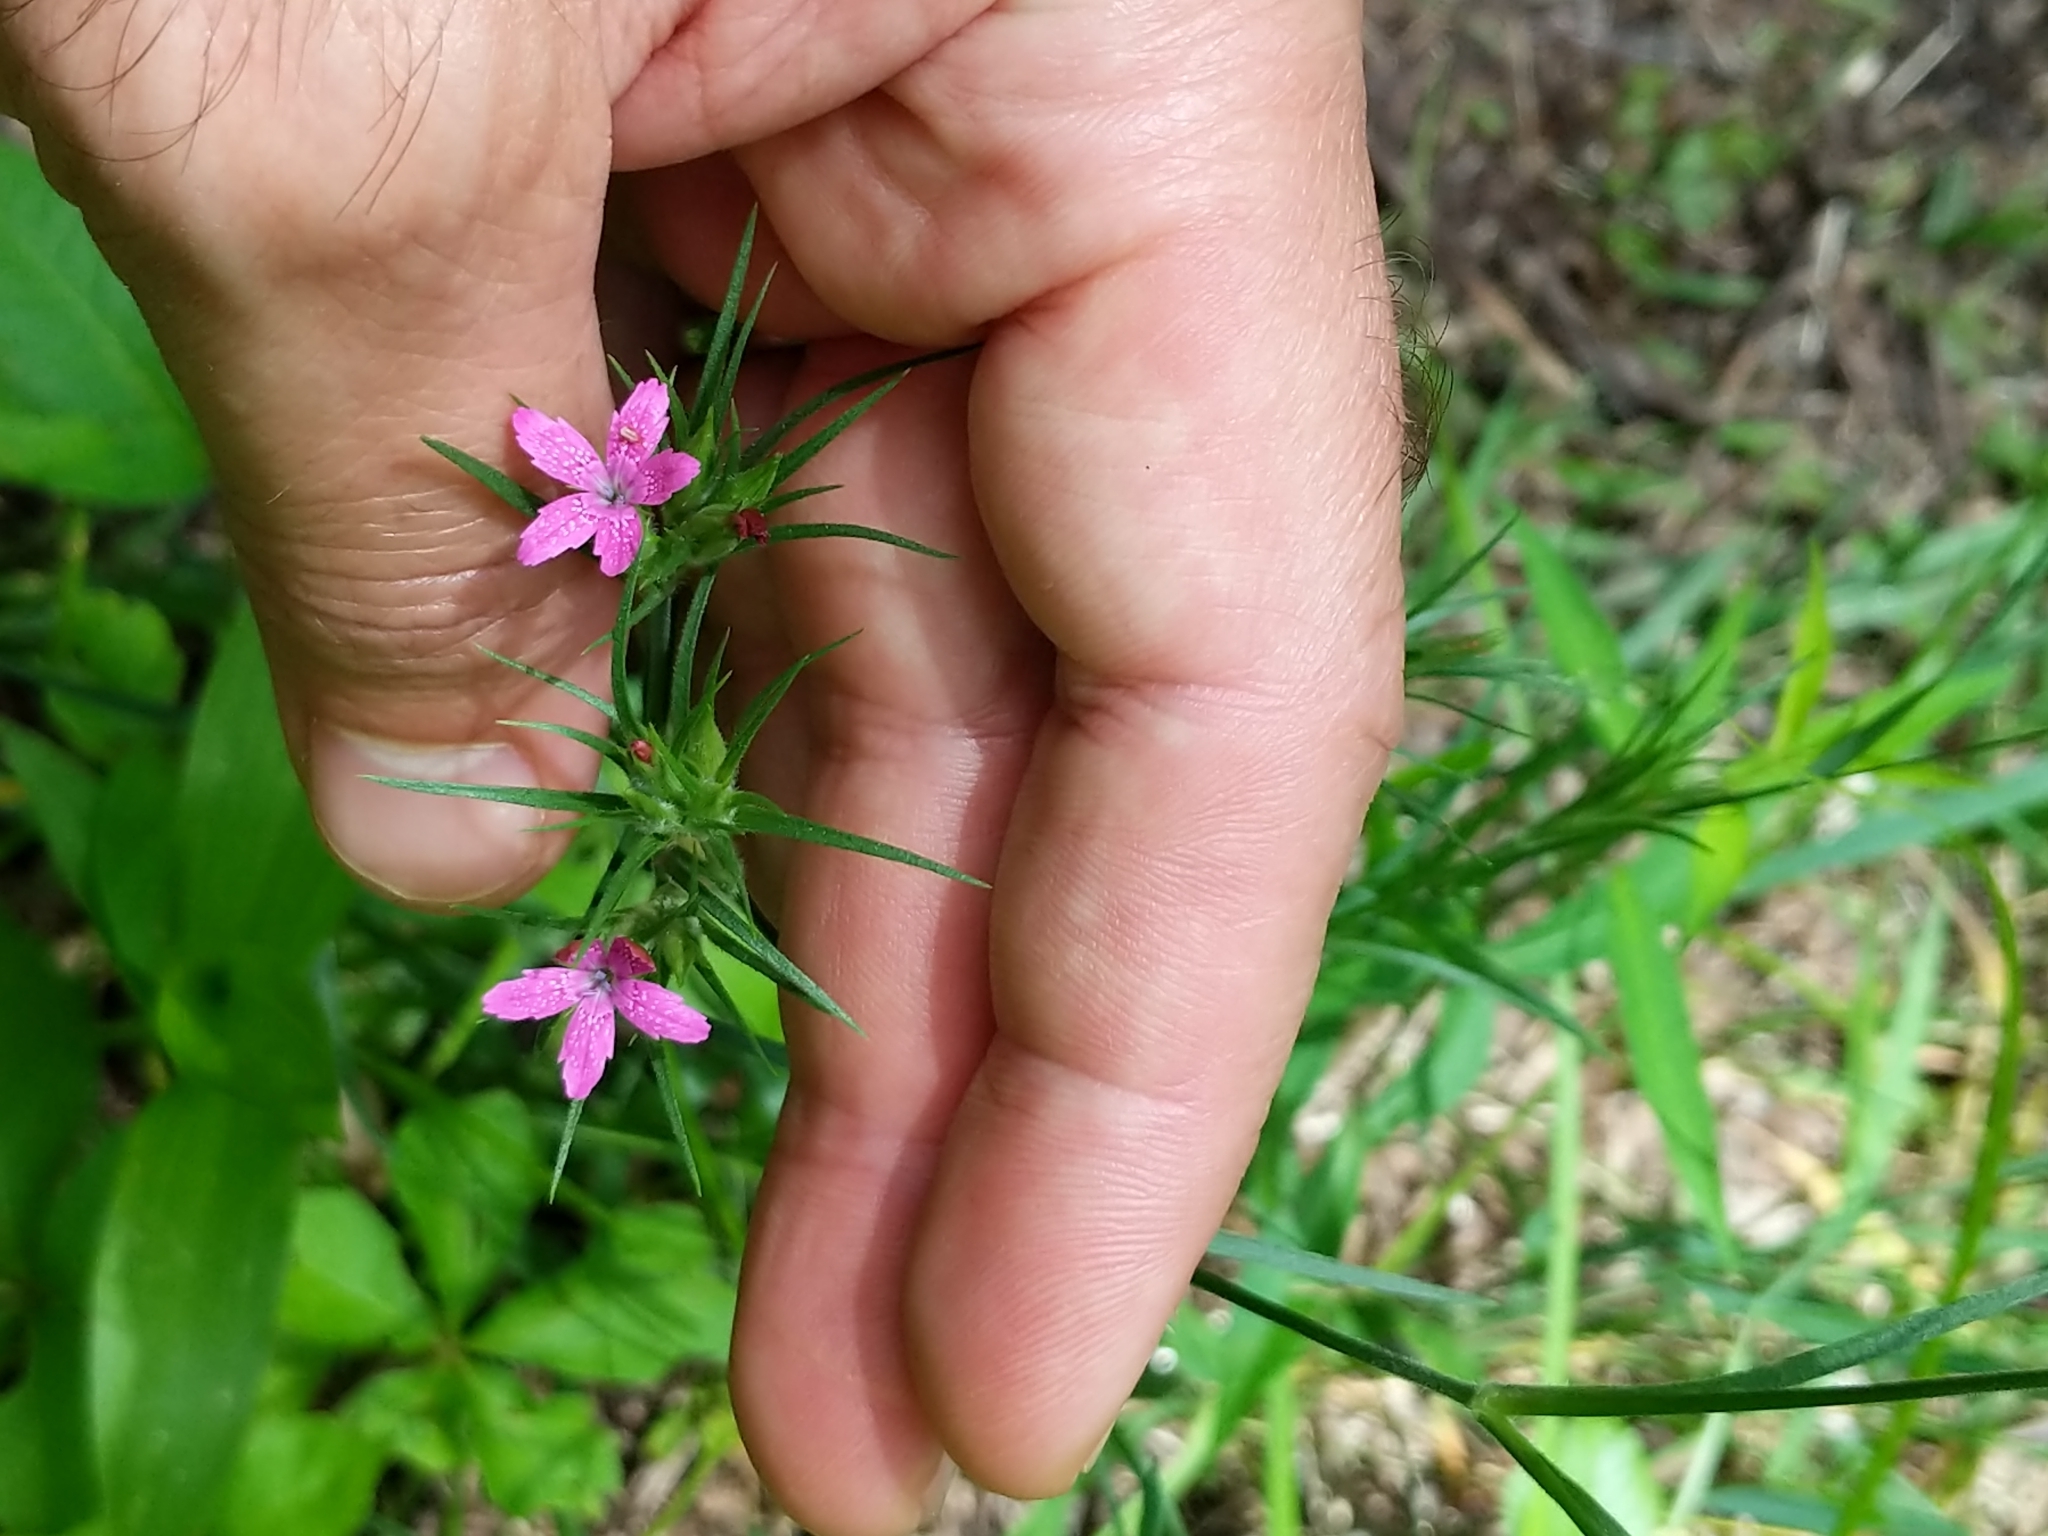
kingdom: Plantae
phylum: Tracheophyta
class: Magnoliopsida
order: Caryophyllales
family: Caryophyllaceae
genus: Dianthus
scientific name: Dianthus armeria
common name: Deptford pink
